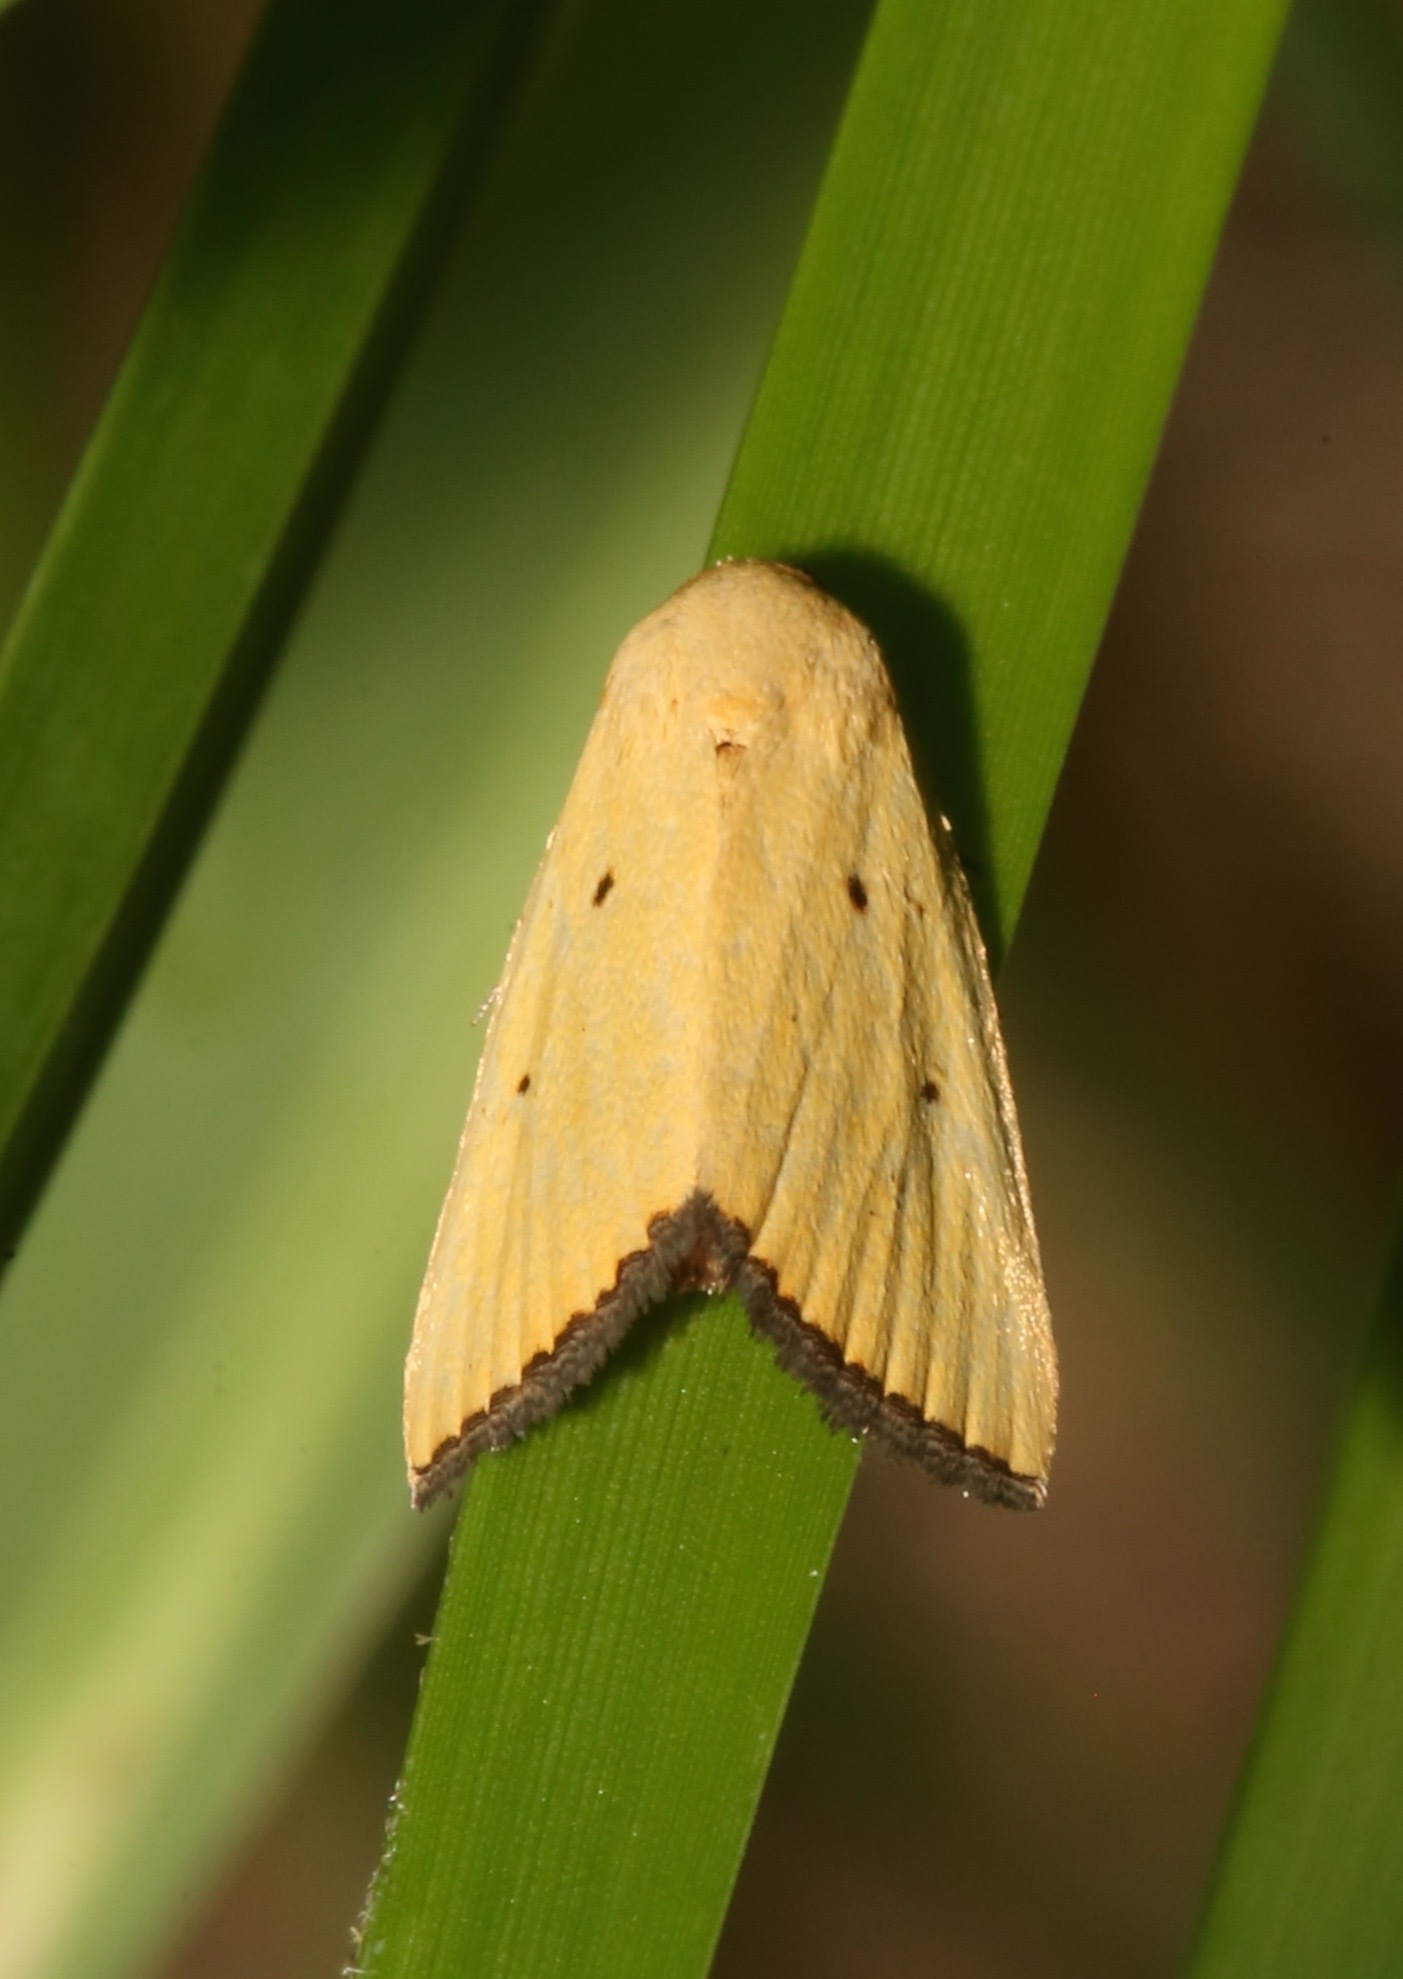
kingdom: Animalia
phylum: Arthropoda
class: Insecta
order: Lepidoptera
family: Noctuidae
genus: Marimatha
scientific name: Marimatha nigrofimbria
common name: Black-bordered lemon moth
